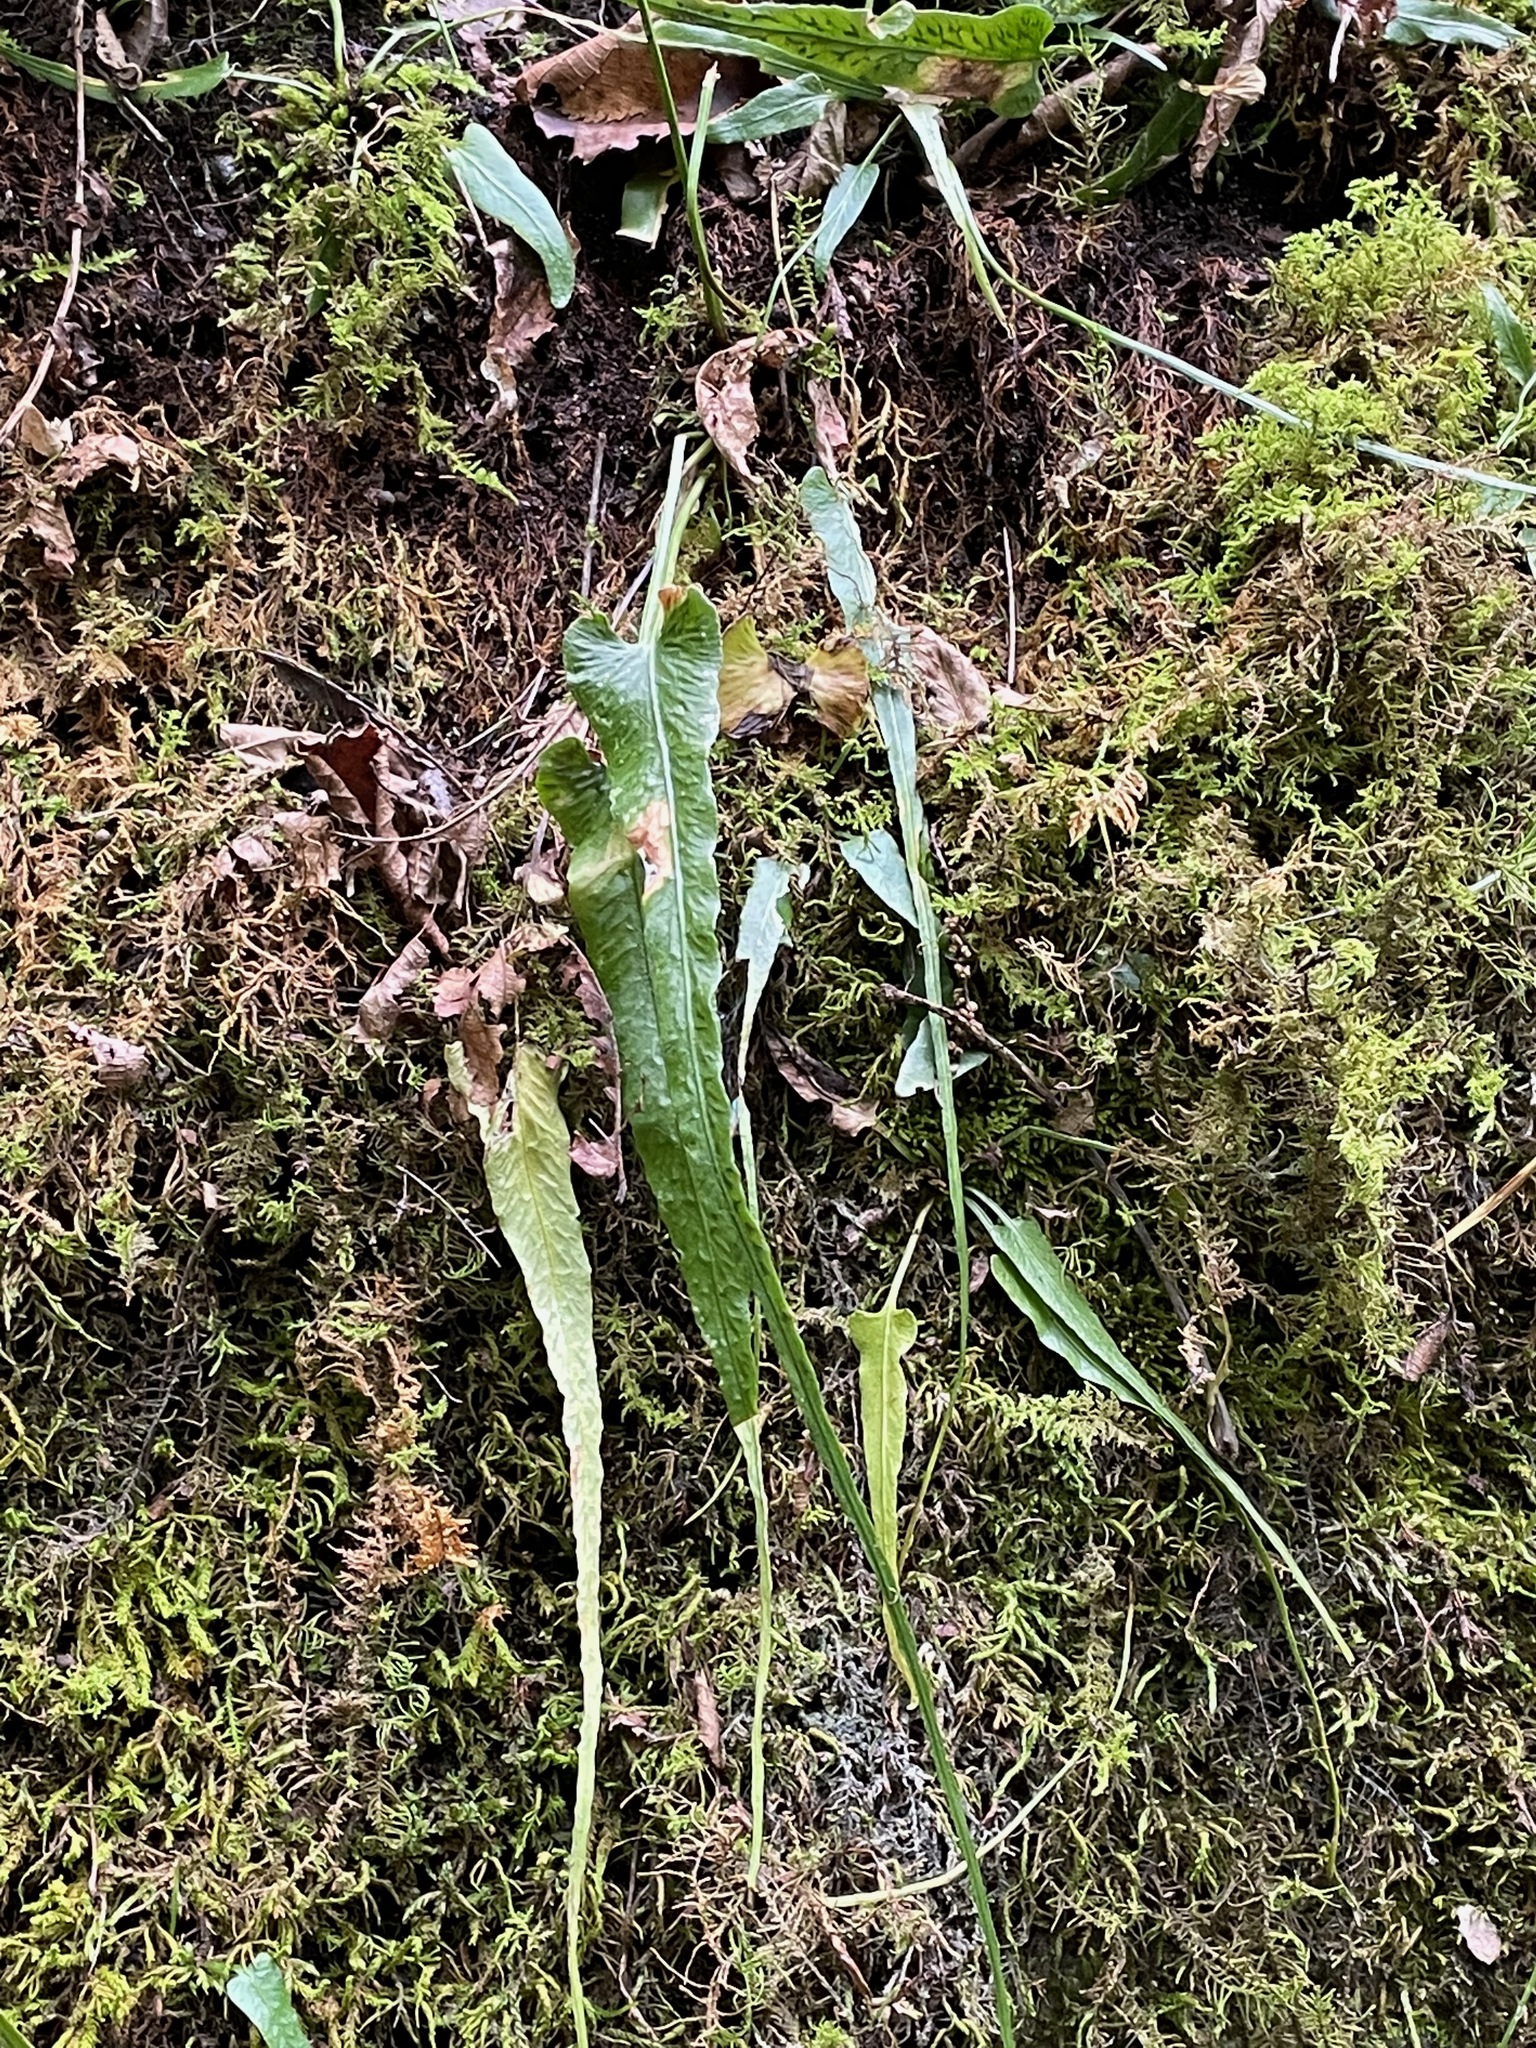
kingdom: Plantae
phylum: Tracheophyta
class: Polypodiopsida
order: Polypodiales
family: Aspleniaceae
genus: Asplenium
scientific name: Asplenium rhizophyllum
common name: Walking fern
